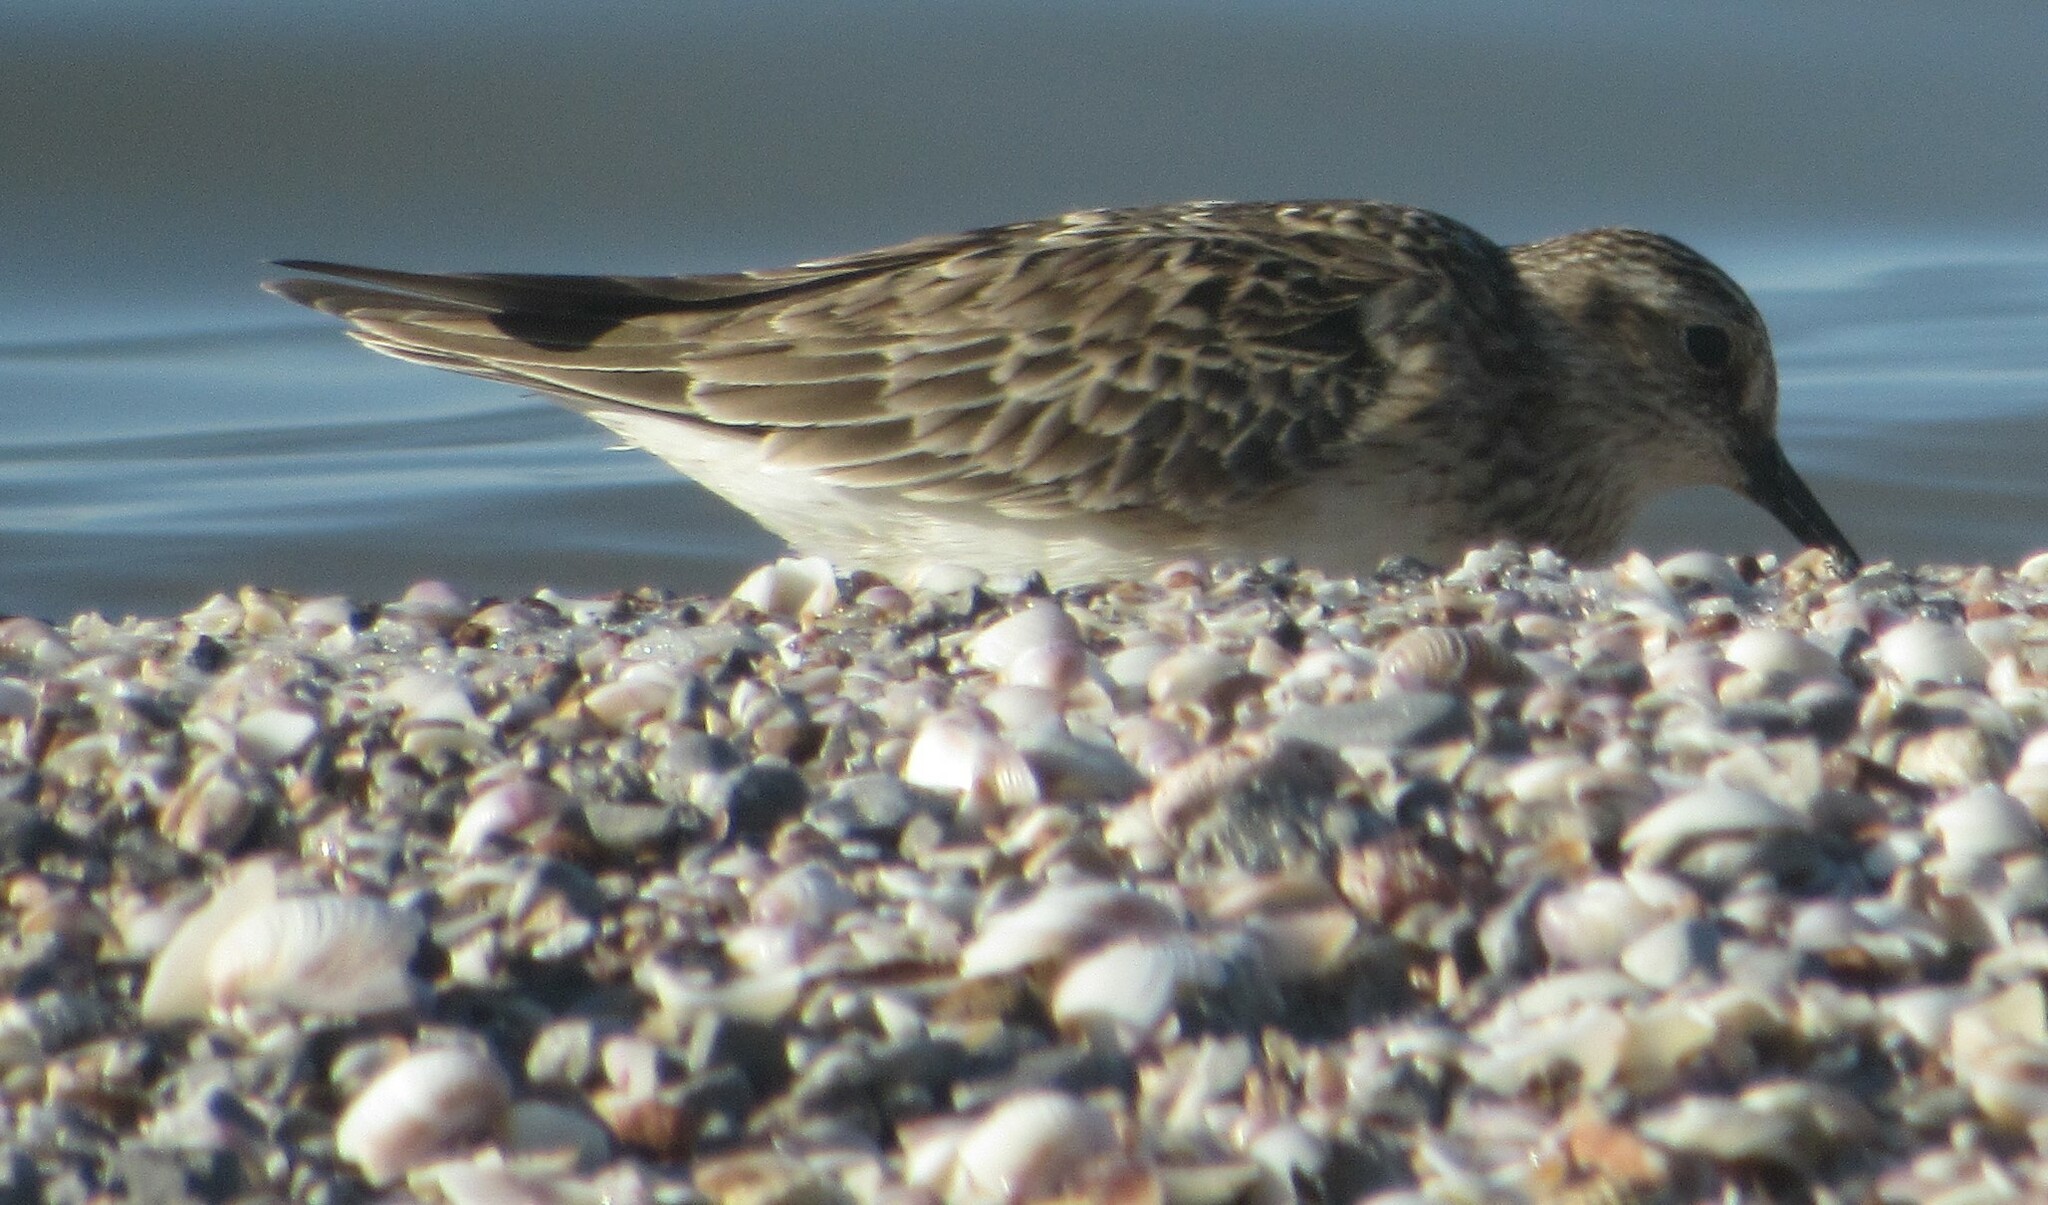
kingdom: Animalia
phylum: Chordata
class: Aves
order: Charadriiformes
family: Scolopacidae
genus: Calidris
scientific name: Calidris bairdii
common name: Baird's sandpiper
